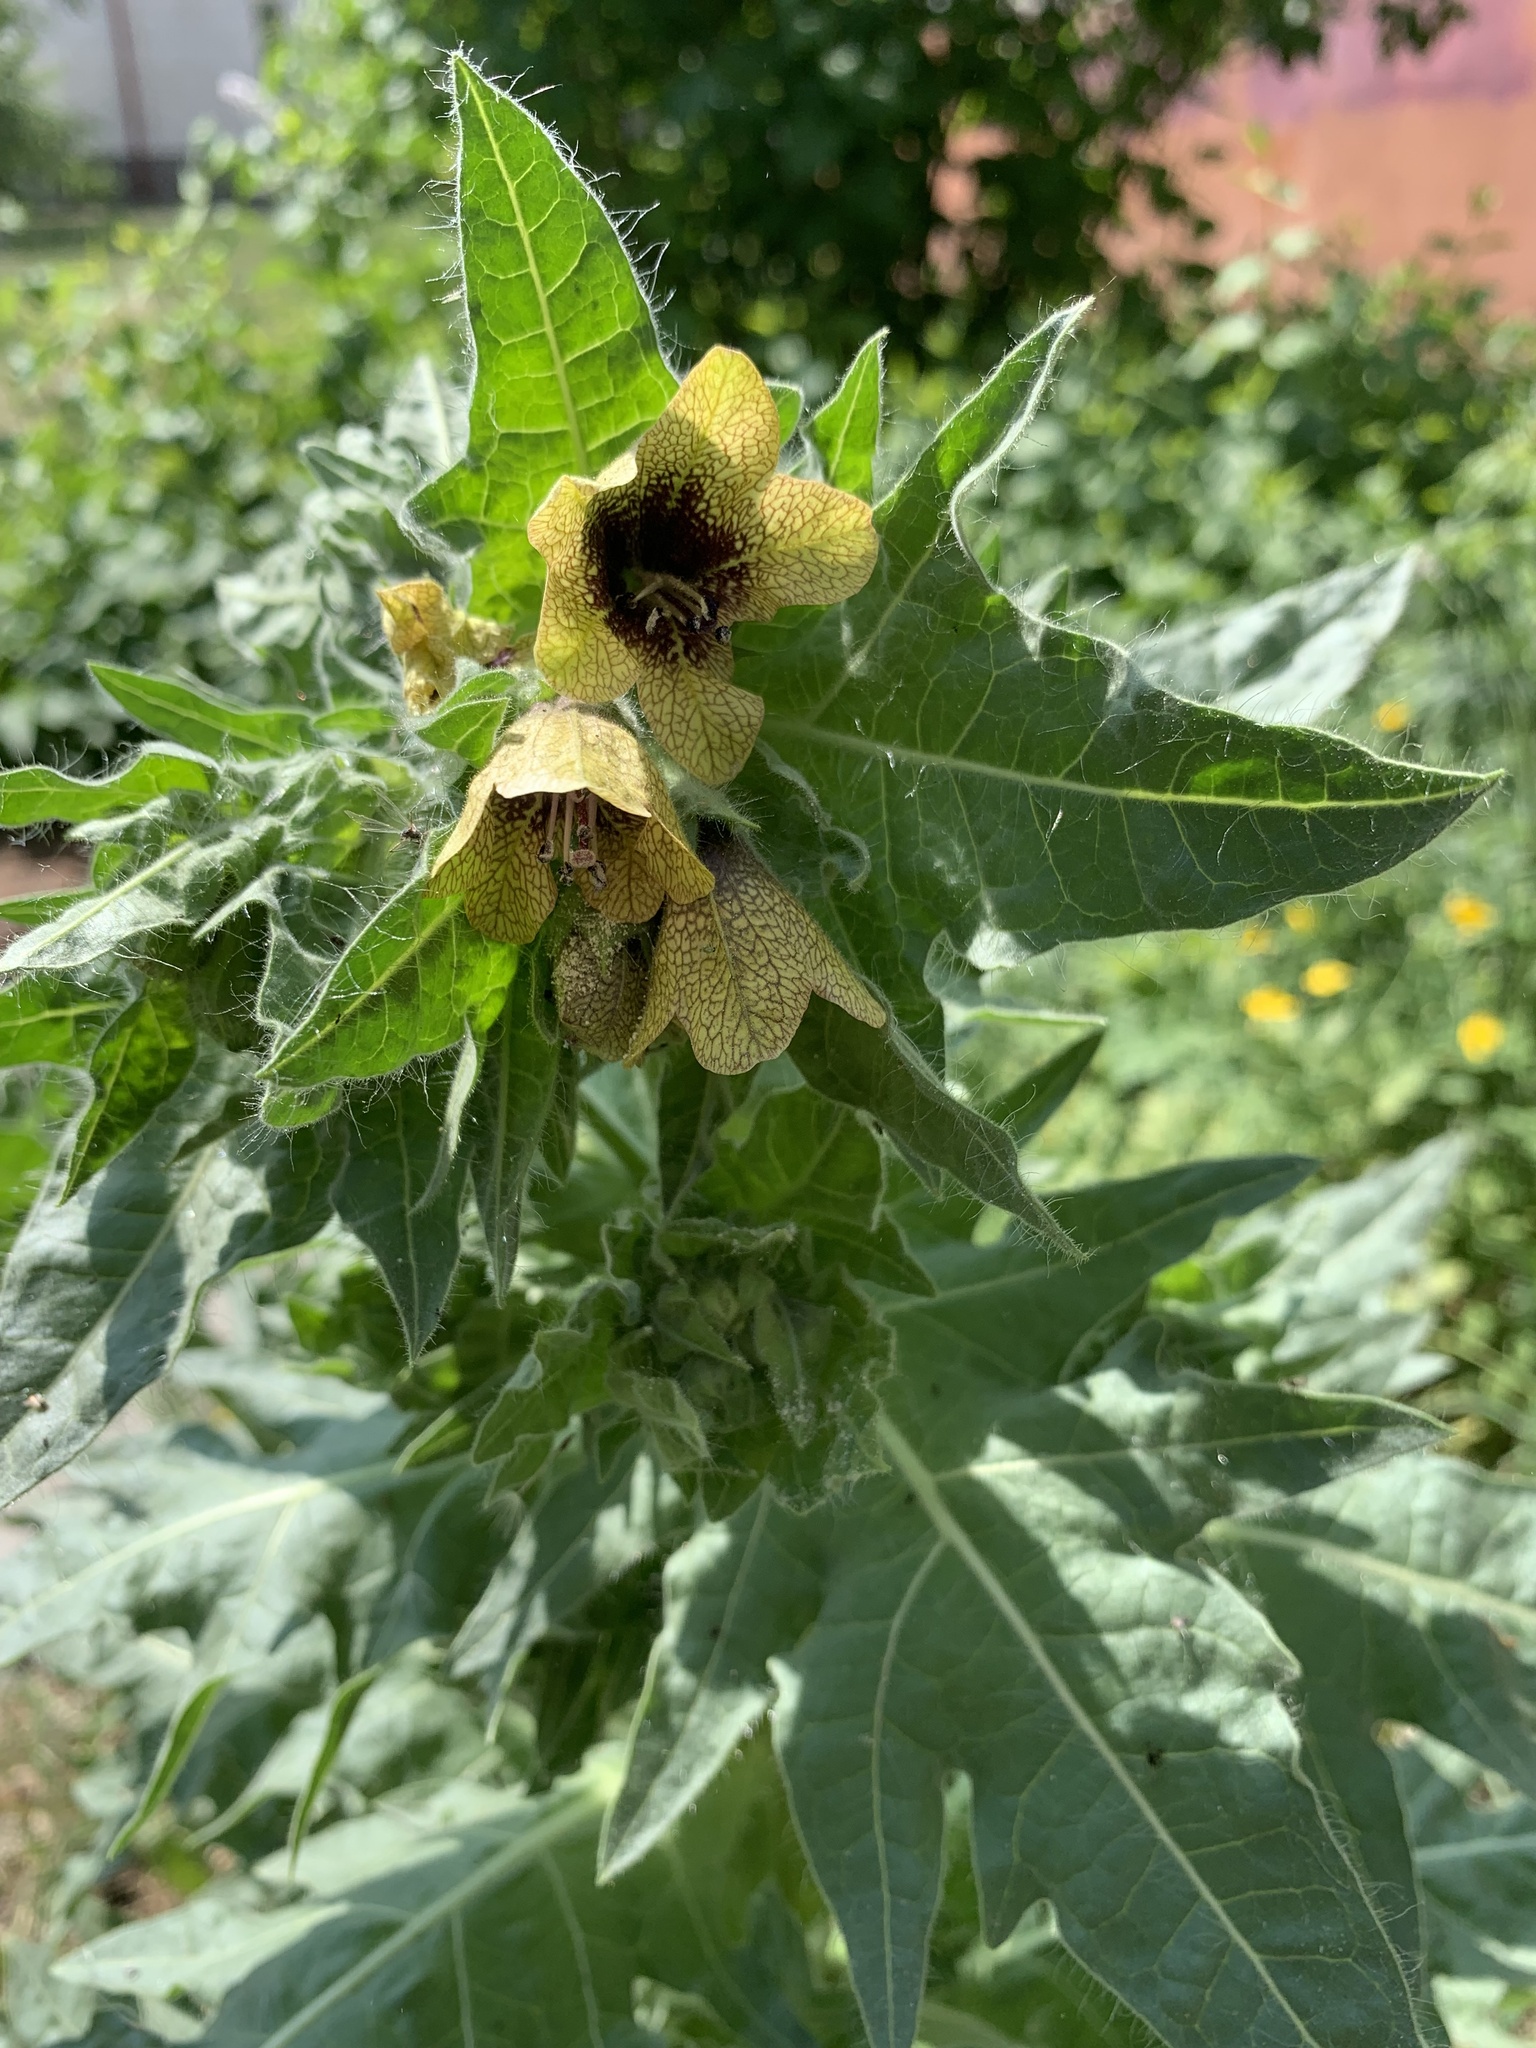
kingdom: Plantae
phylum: Tracheophyta
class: Magnoliopsida
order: Solanales
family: Solanaceae
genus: Hyoscyamus
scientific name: Hyoscyamus niger
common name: Henbane
